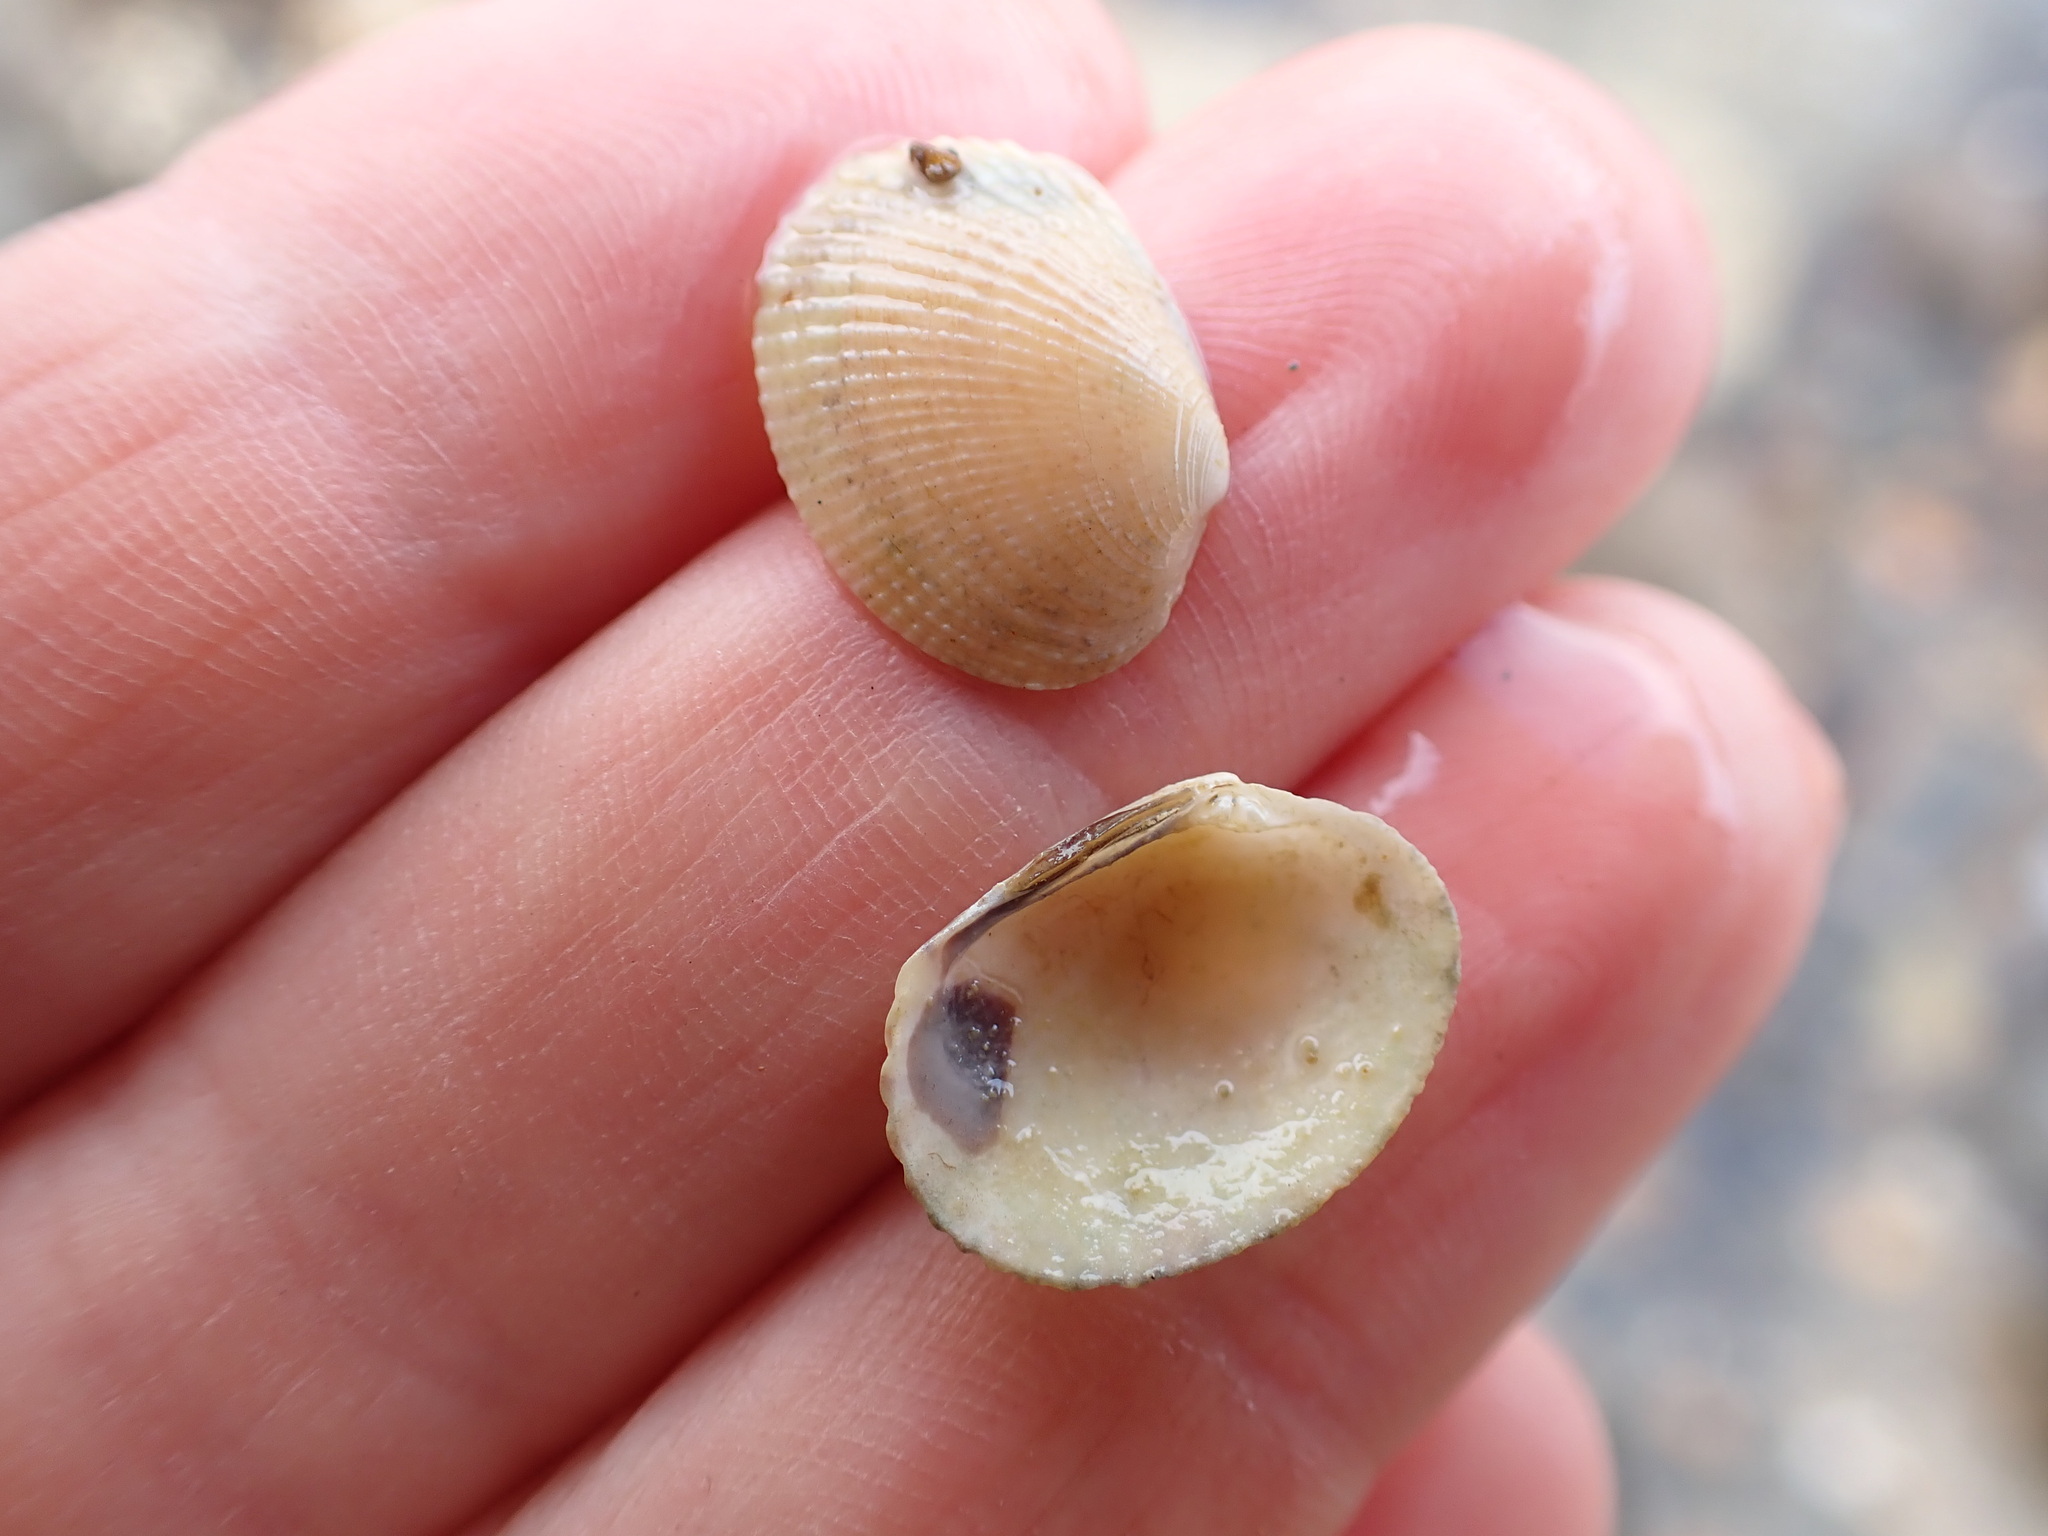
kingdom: Animalia
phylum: Mollusca
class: Bivalvia
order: Venerida
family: Veneridae
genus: Leukoma
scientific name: Leukoma crassicosta
